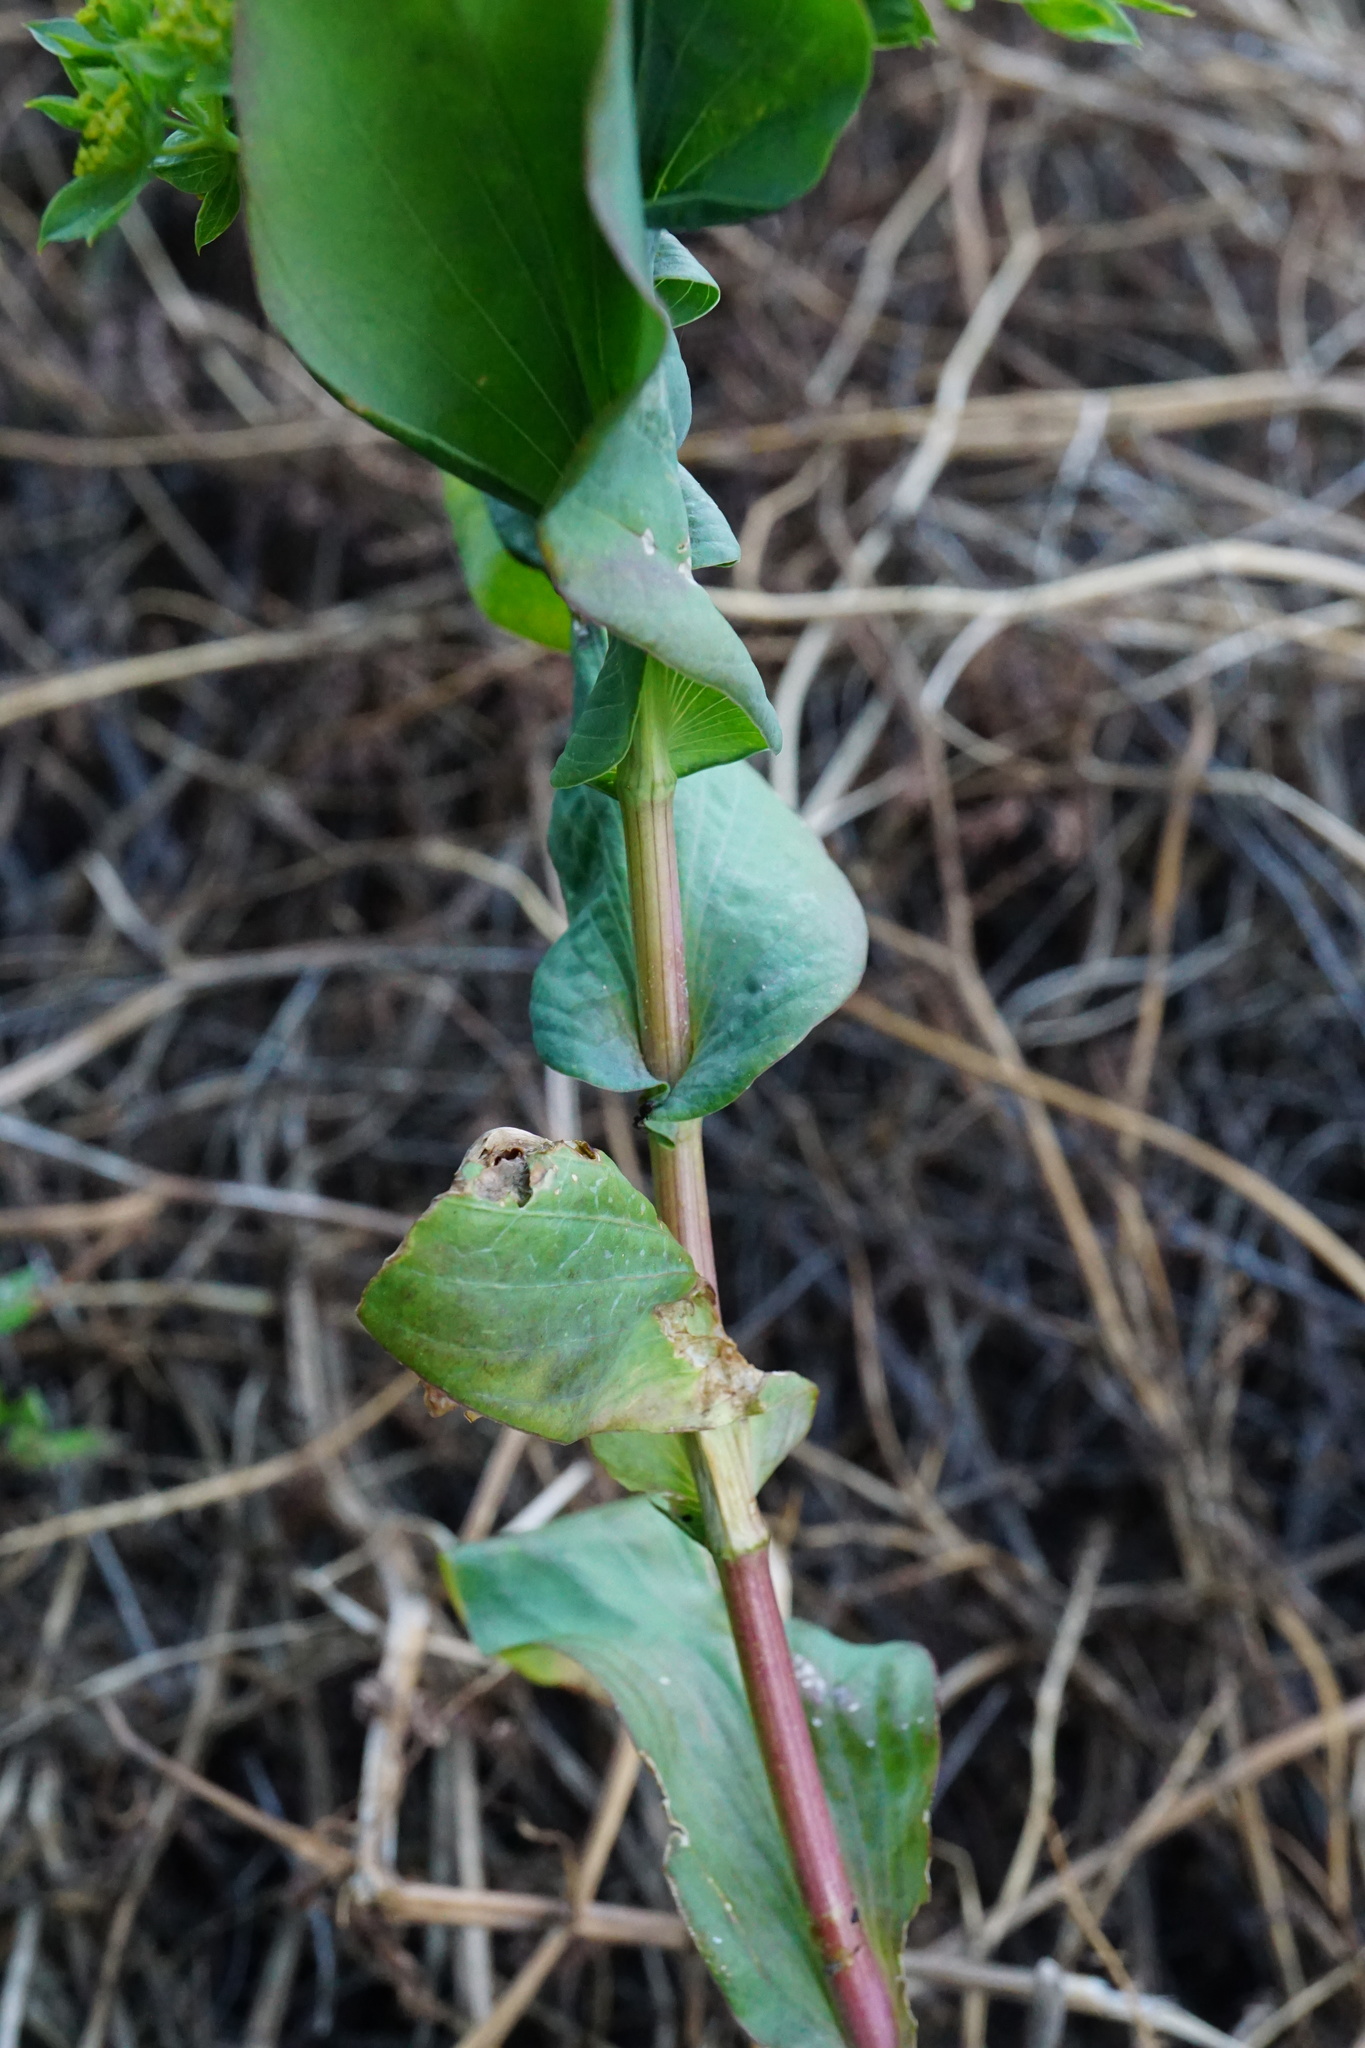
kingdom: Plantae
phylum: Tracheophyta
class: Magnoliopsida
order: Apiales
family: Apiaceae
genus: Bupleurum
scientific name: Bupleurum rotundifolium
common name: Thorow-wax
